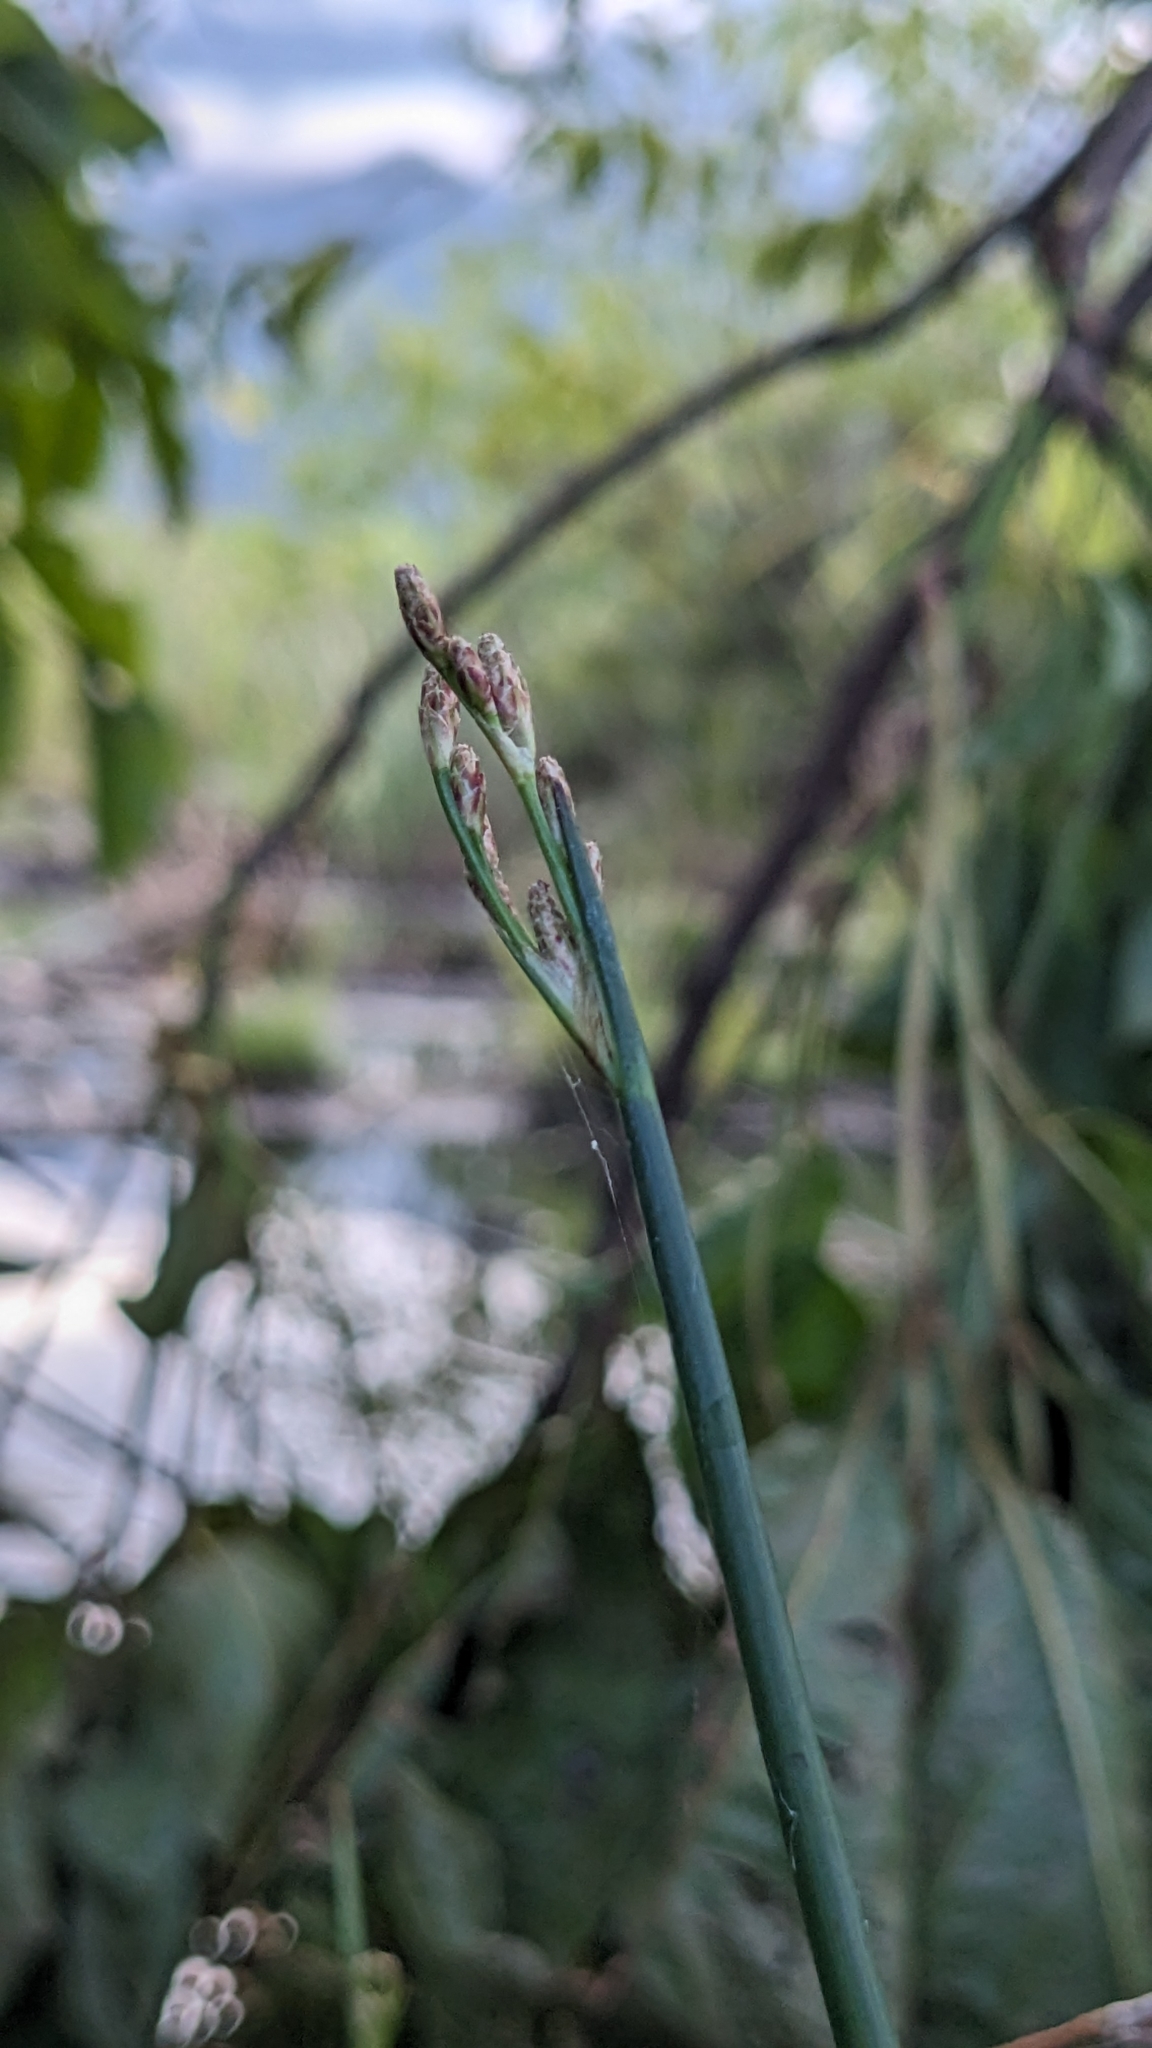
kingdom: Plantae
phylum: Tracheophyta
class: Liliopsida
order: Poales
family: Cyperaceae
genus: Schoenoplectus
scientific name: Schoenoplectus tabernaemontani
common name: Grey club-rush
